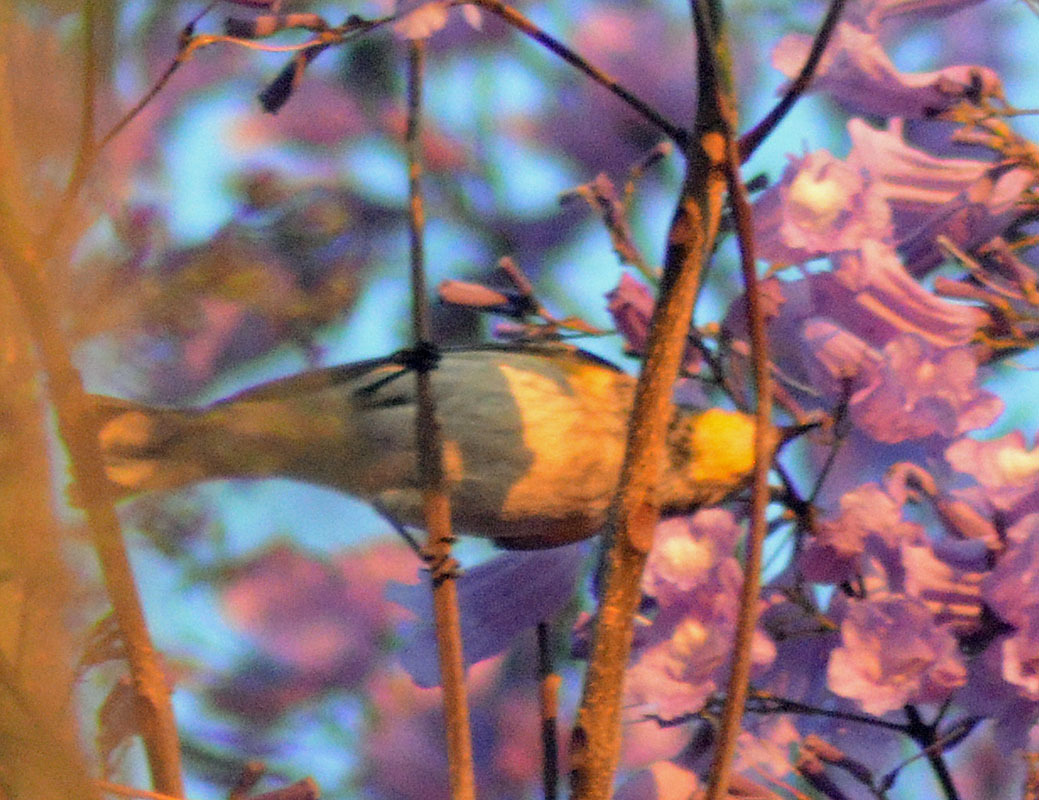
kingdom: Animalia
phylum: Chordata
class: Aves
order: Passeriformes
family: Parulidae
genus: Setophaga
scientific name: Setophaga coronata
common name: Myrtle warbler
